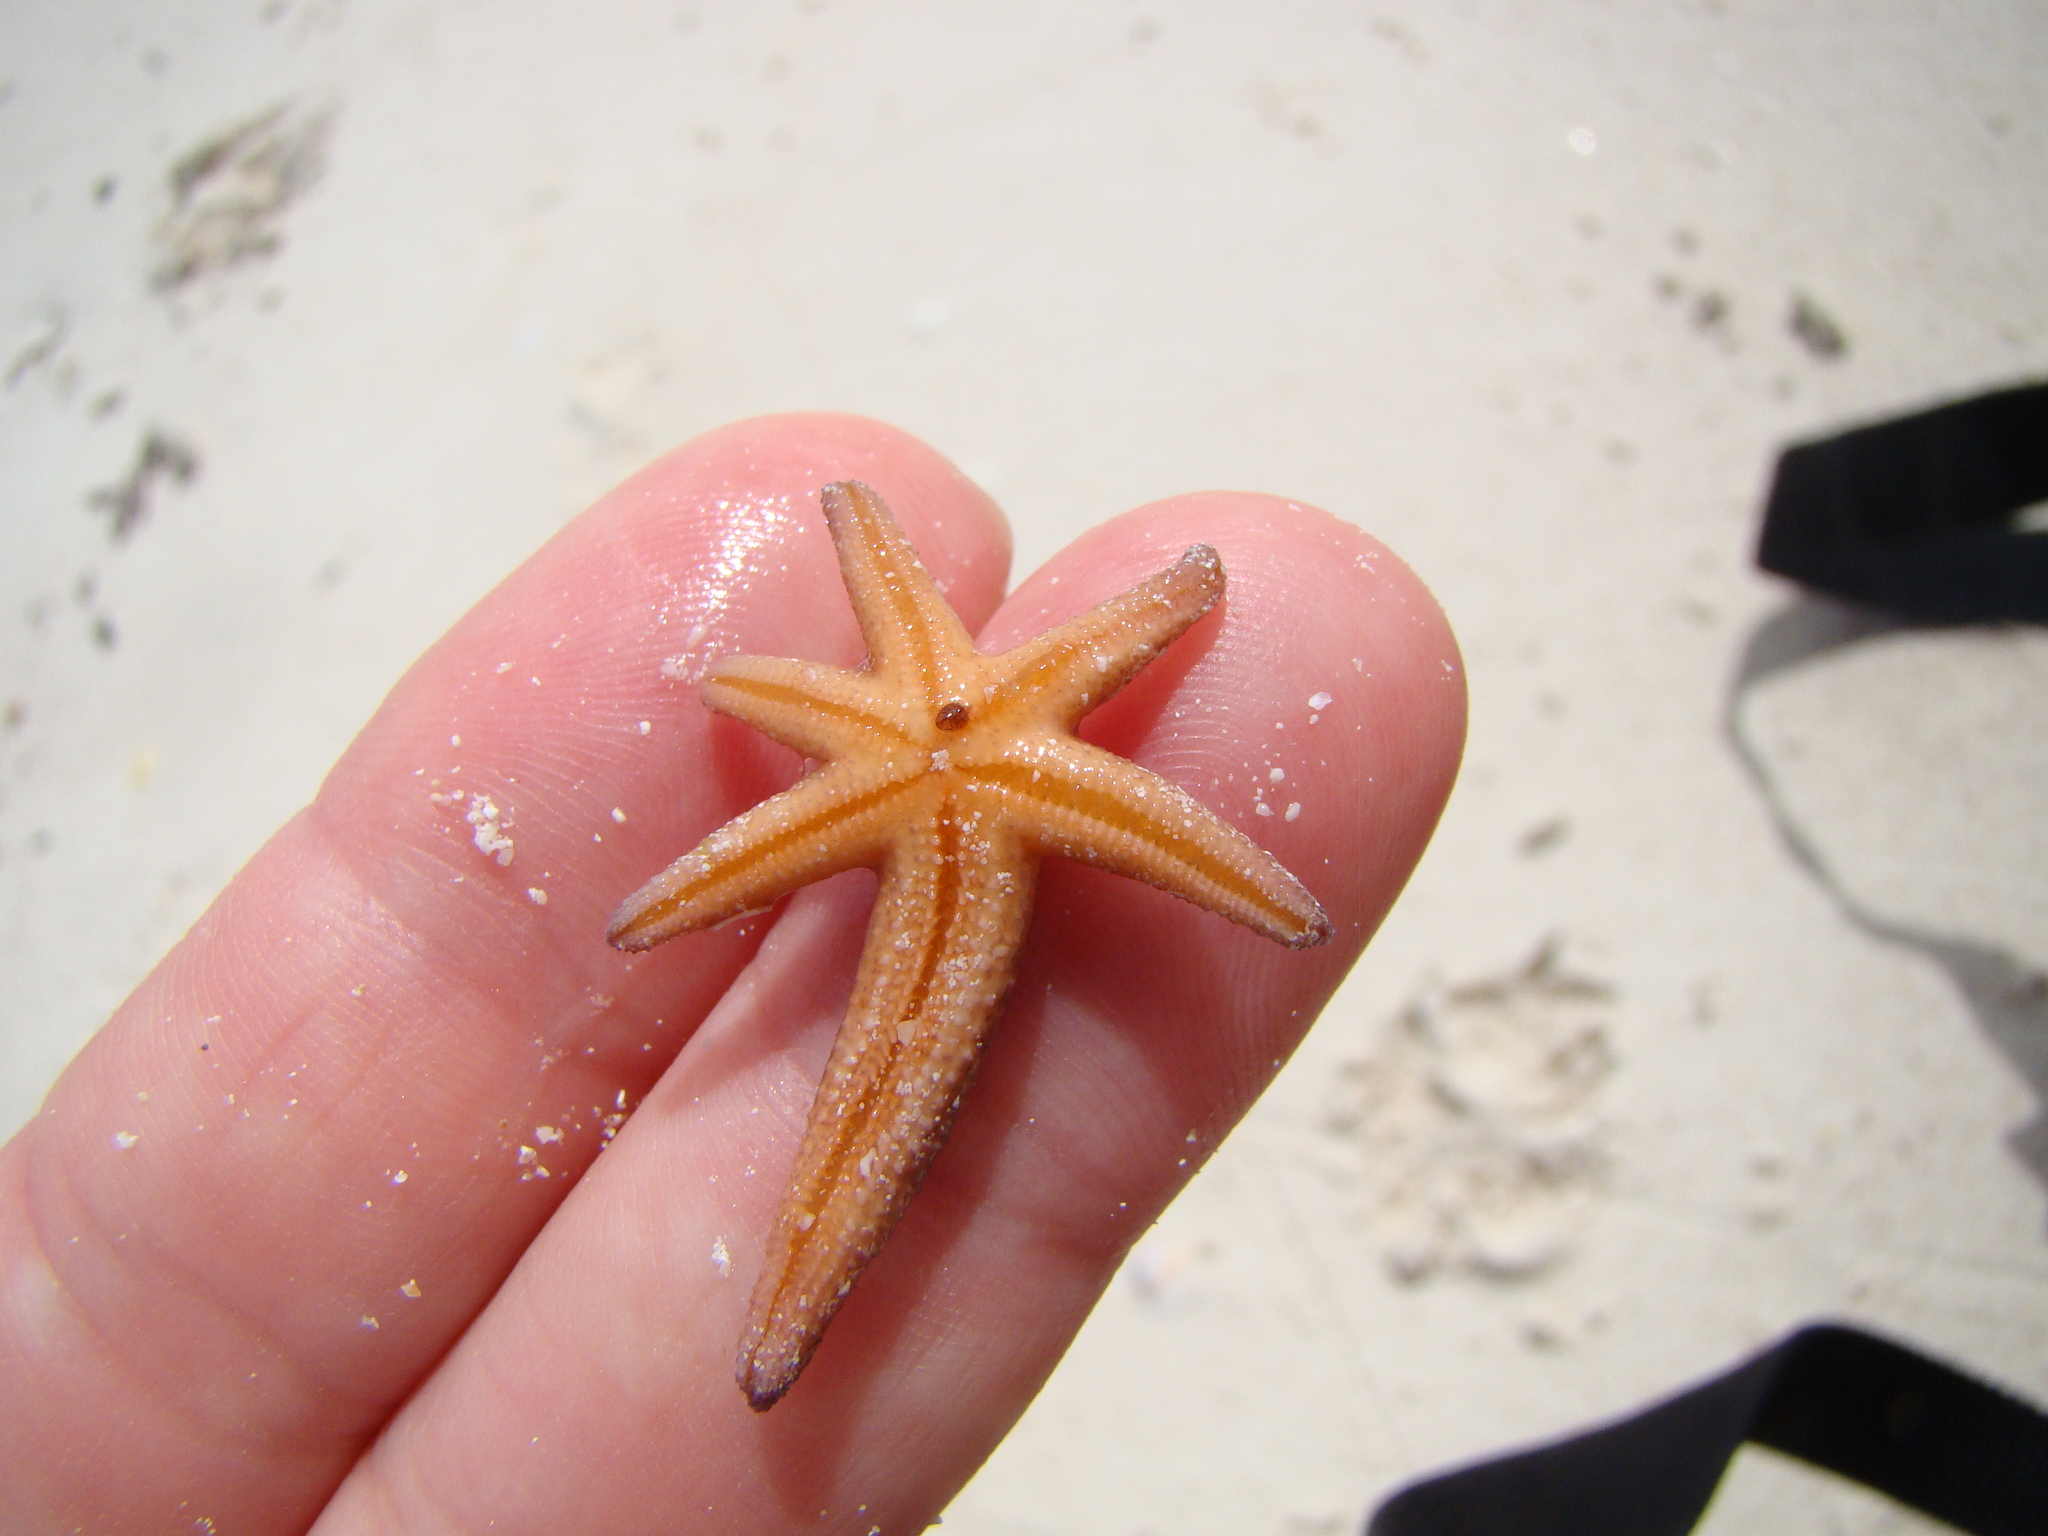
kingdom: Animalia
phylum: Echinodermata
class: Asteroidea
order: Spinulosida
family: Echinasteridae
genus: Echinaster
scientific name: Echinaster luzonicus
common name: Luzon seastar
